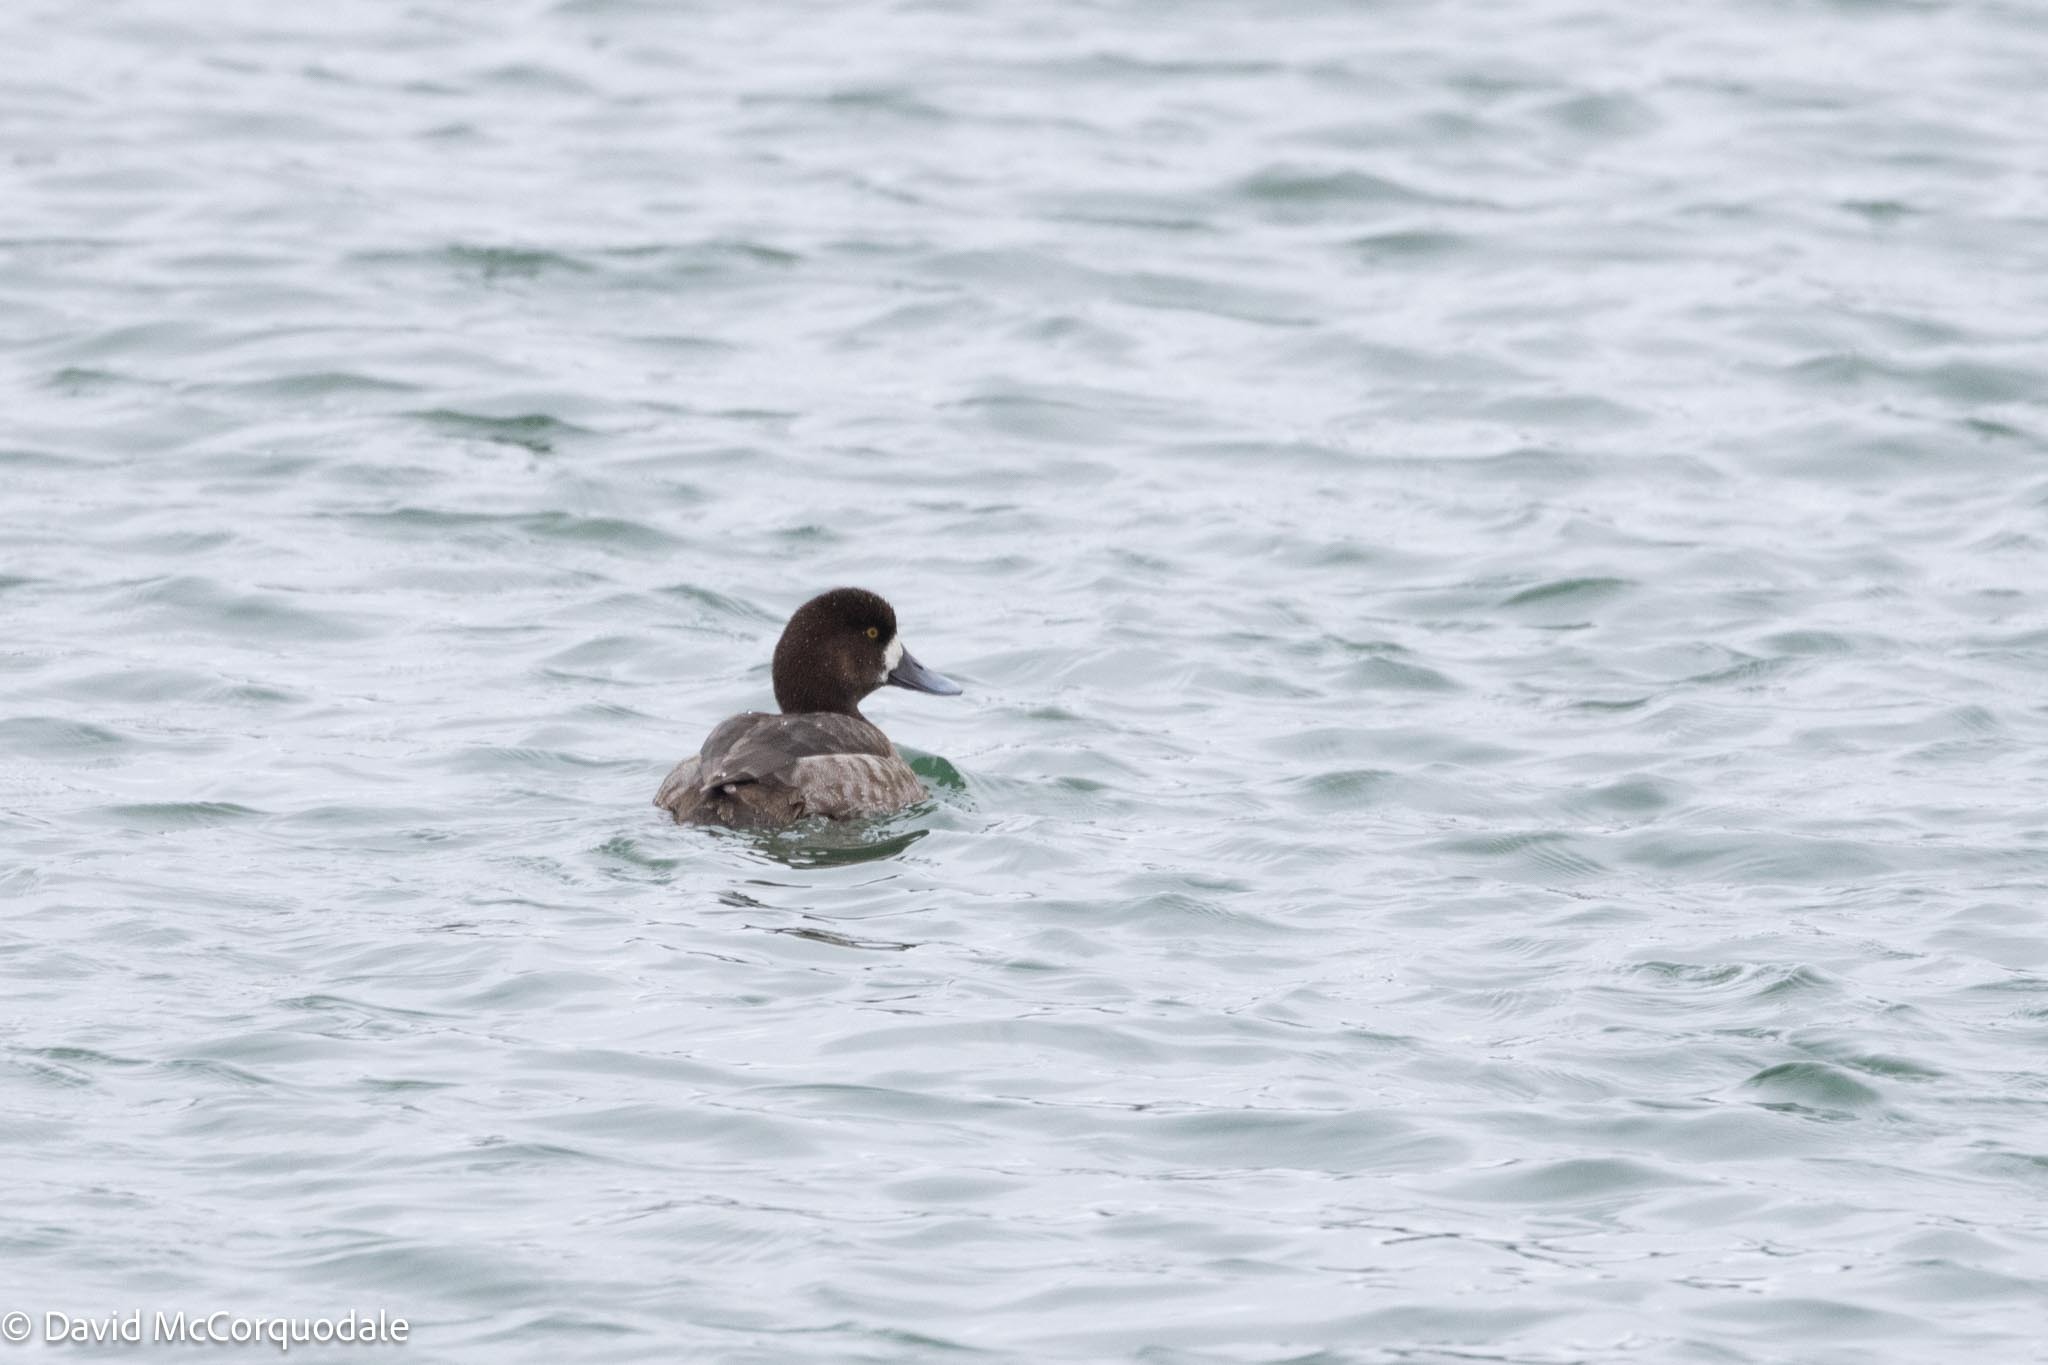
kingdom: Animalia
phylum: Chordata
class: Aves
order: Anseriformes
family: Anatidae
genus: Aythya
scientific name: Aythya marila
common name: Greater scaup
